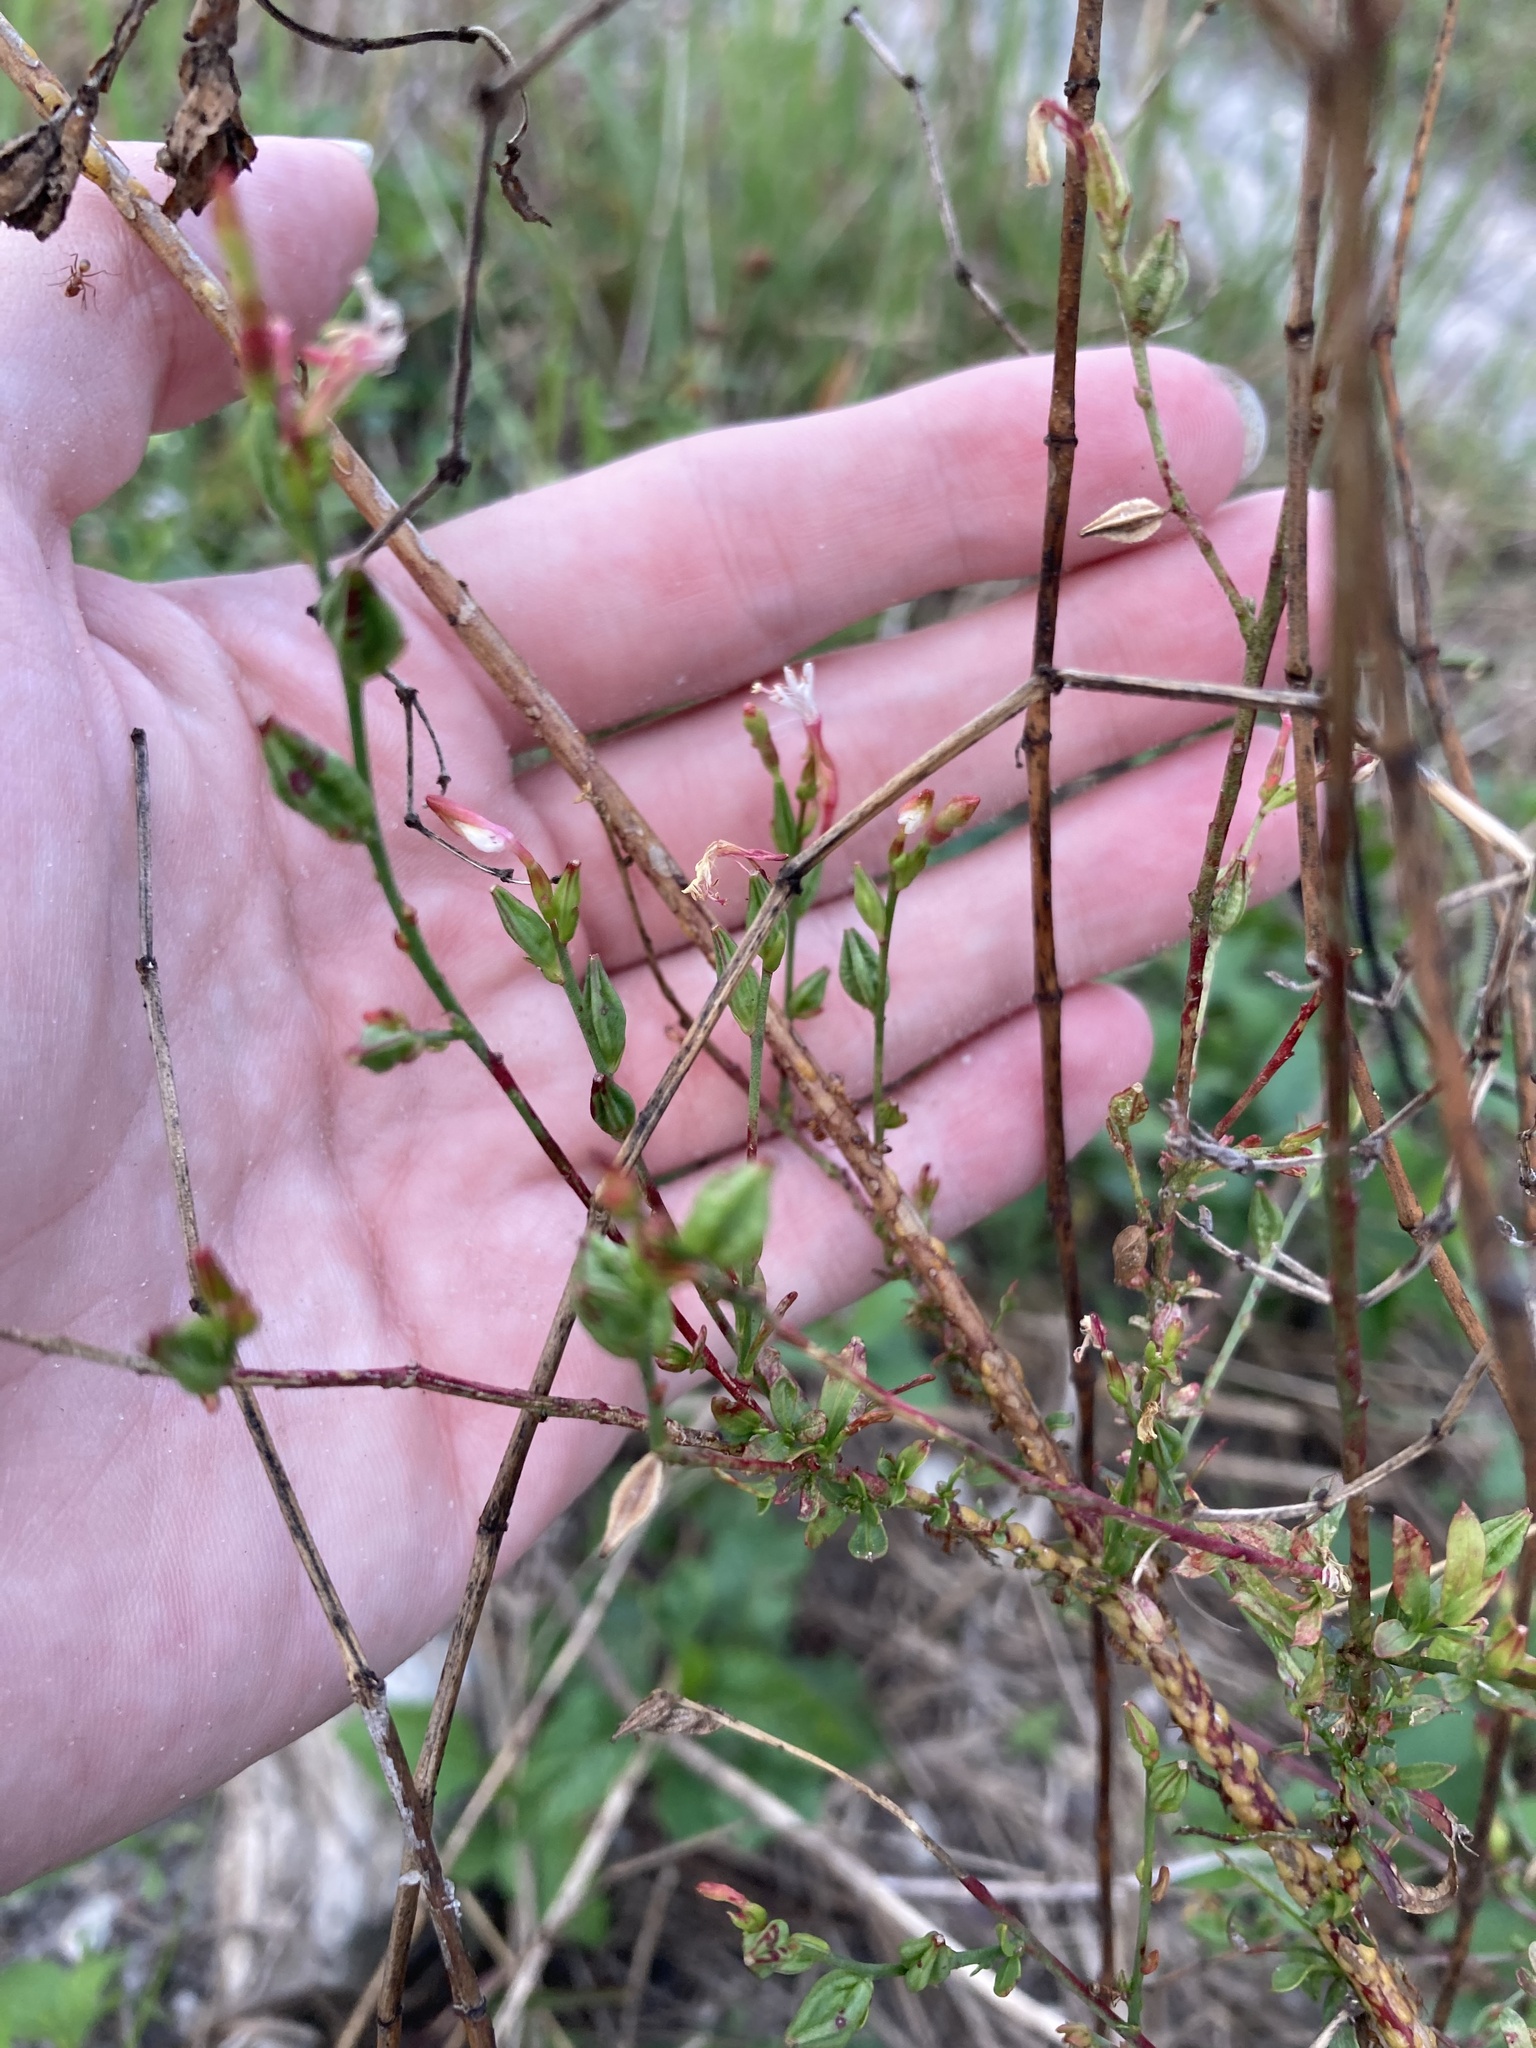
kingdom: Plantae
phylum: Tracheophyta
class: Magnoliopsida
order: Myrtales
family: Onagraceae
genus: Oenothera
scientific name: Oenothera simulans
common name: Southern beeblossom
